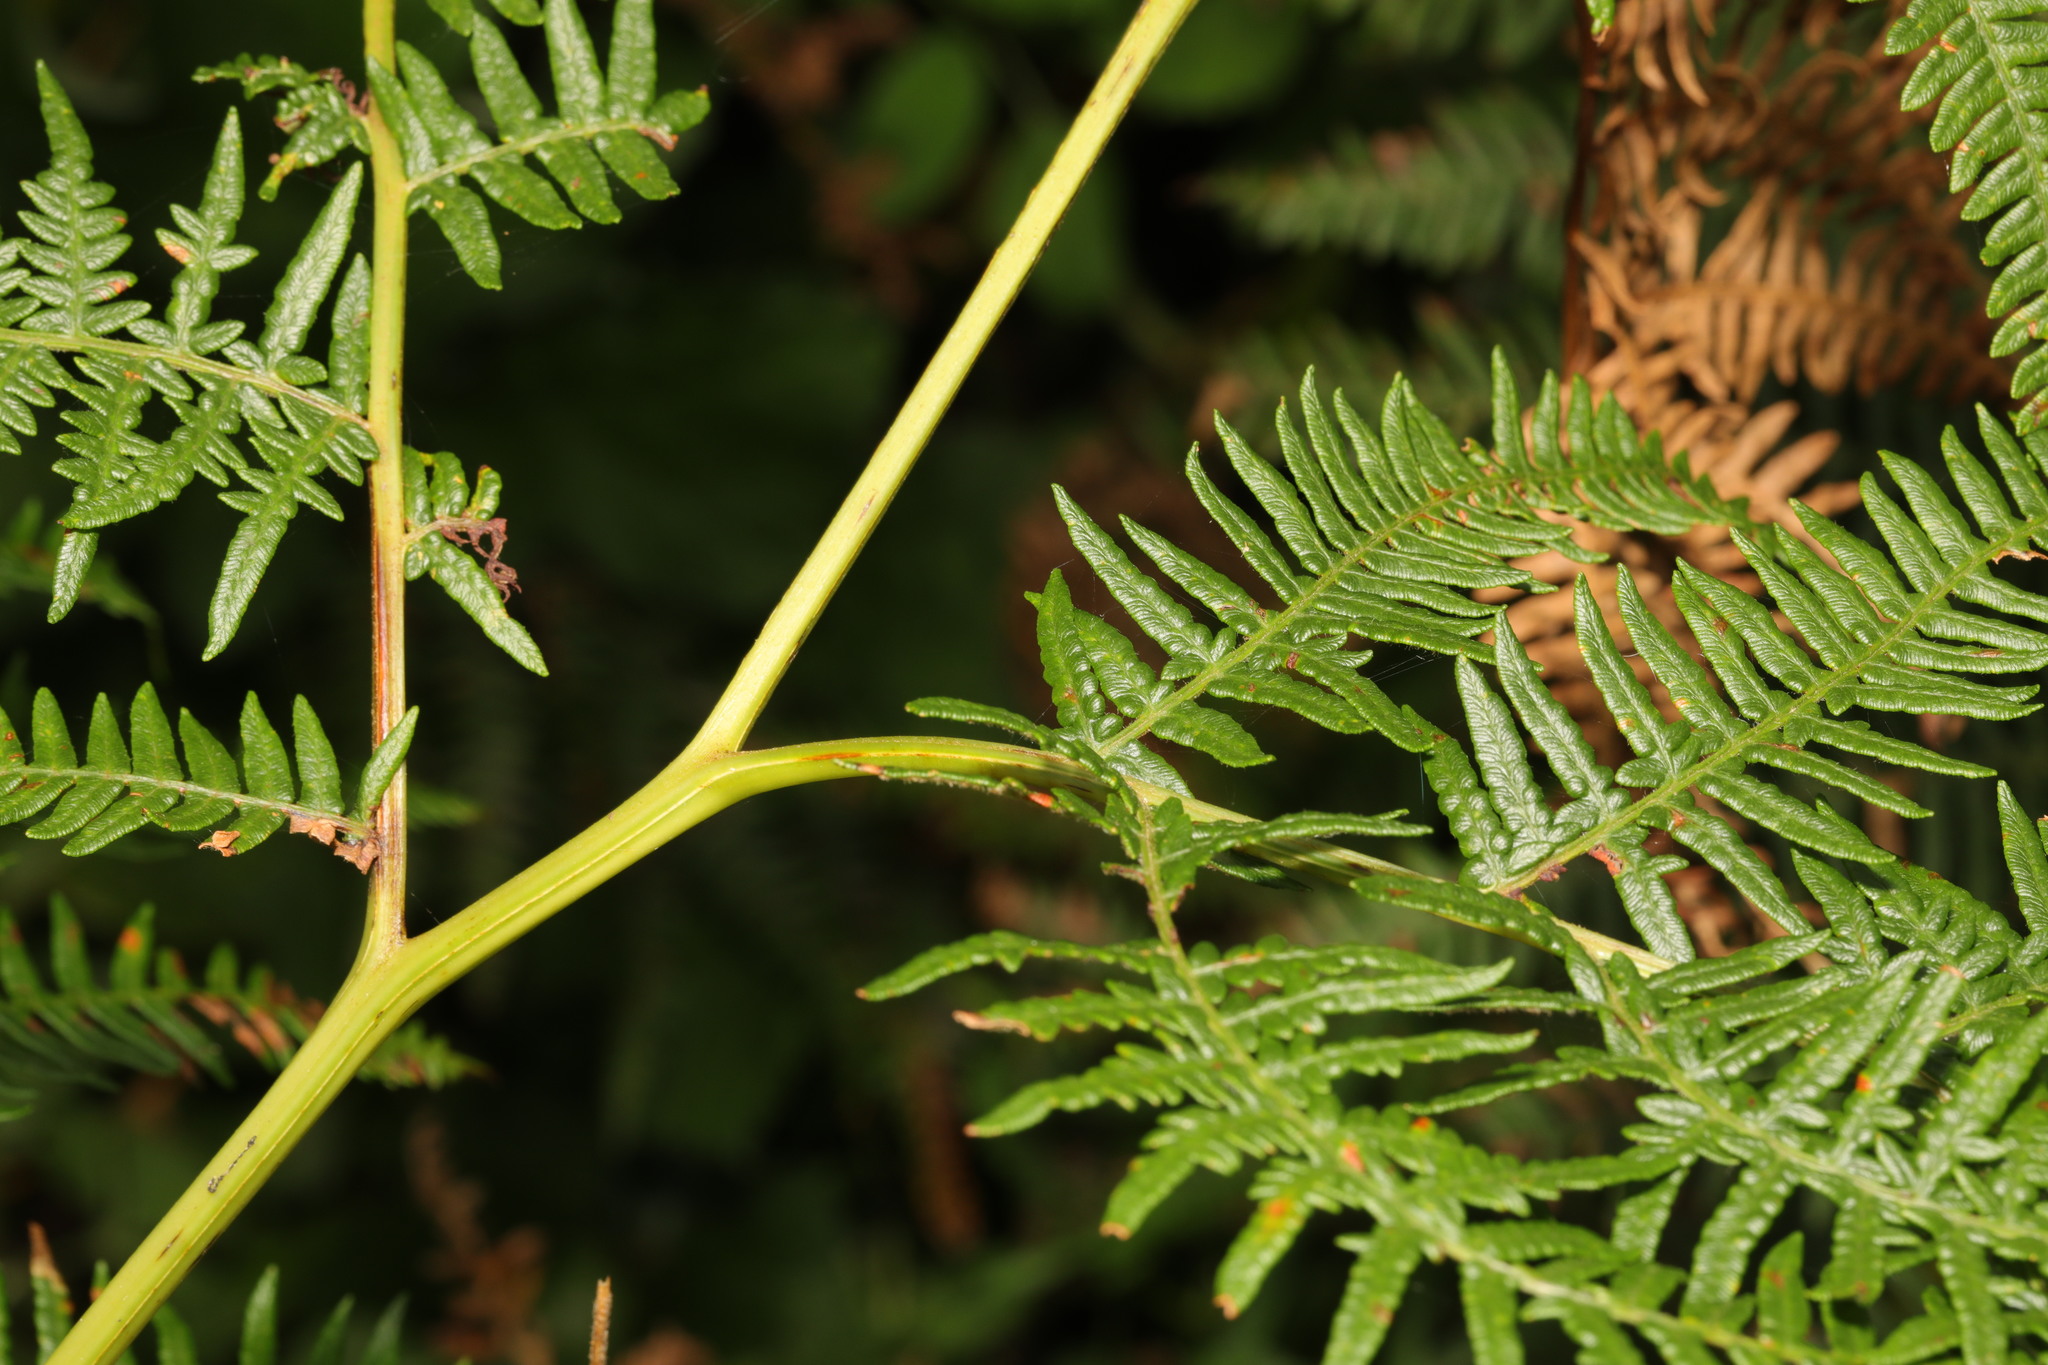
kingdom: Plantae
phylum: Tracheophyta
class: Polypodiopsida
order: Polypodiales
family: Dennstaedtiaceae
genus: Pteridium
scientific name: Pteridium aquilinum
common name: Bracken
